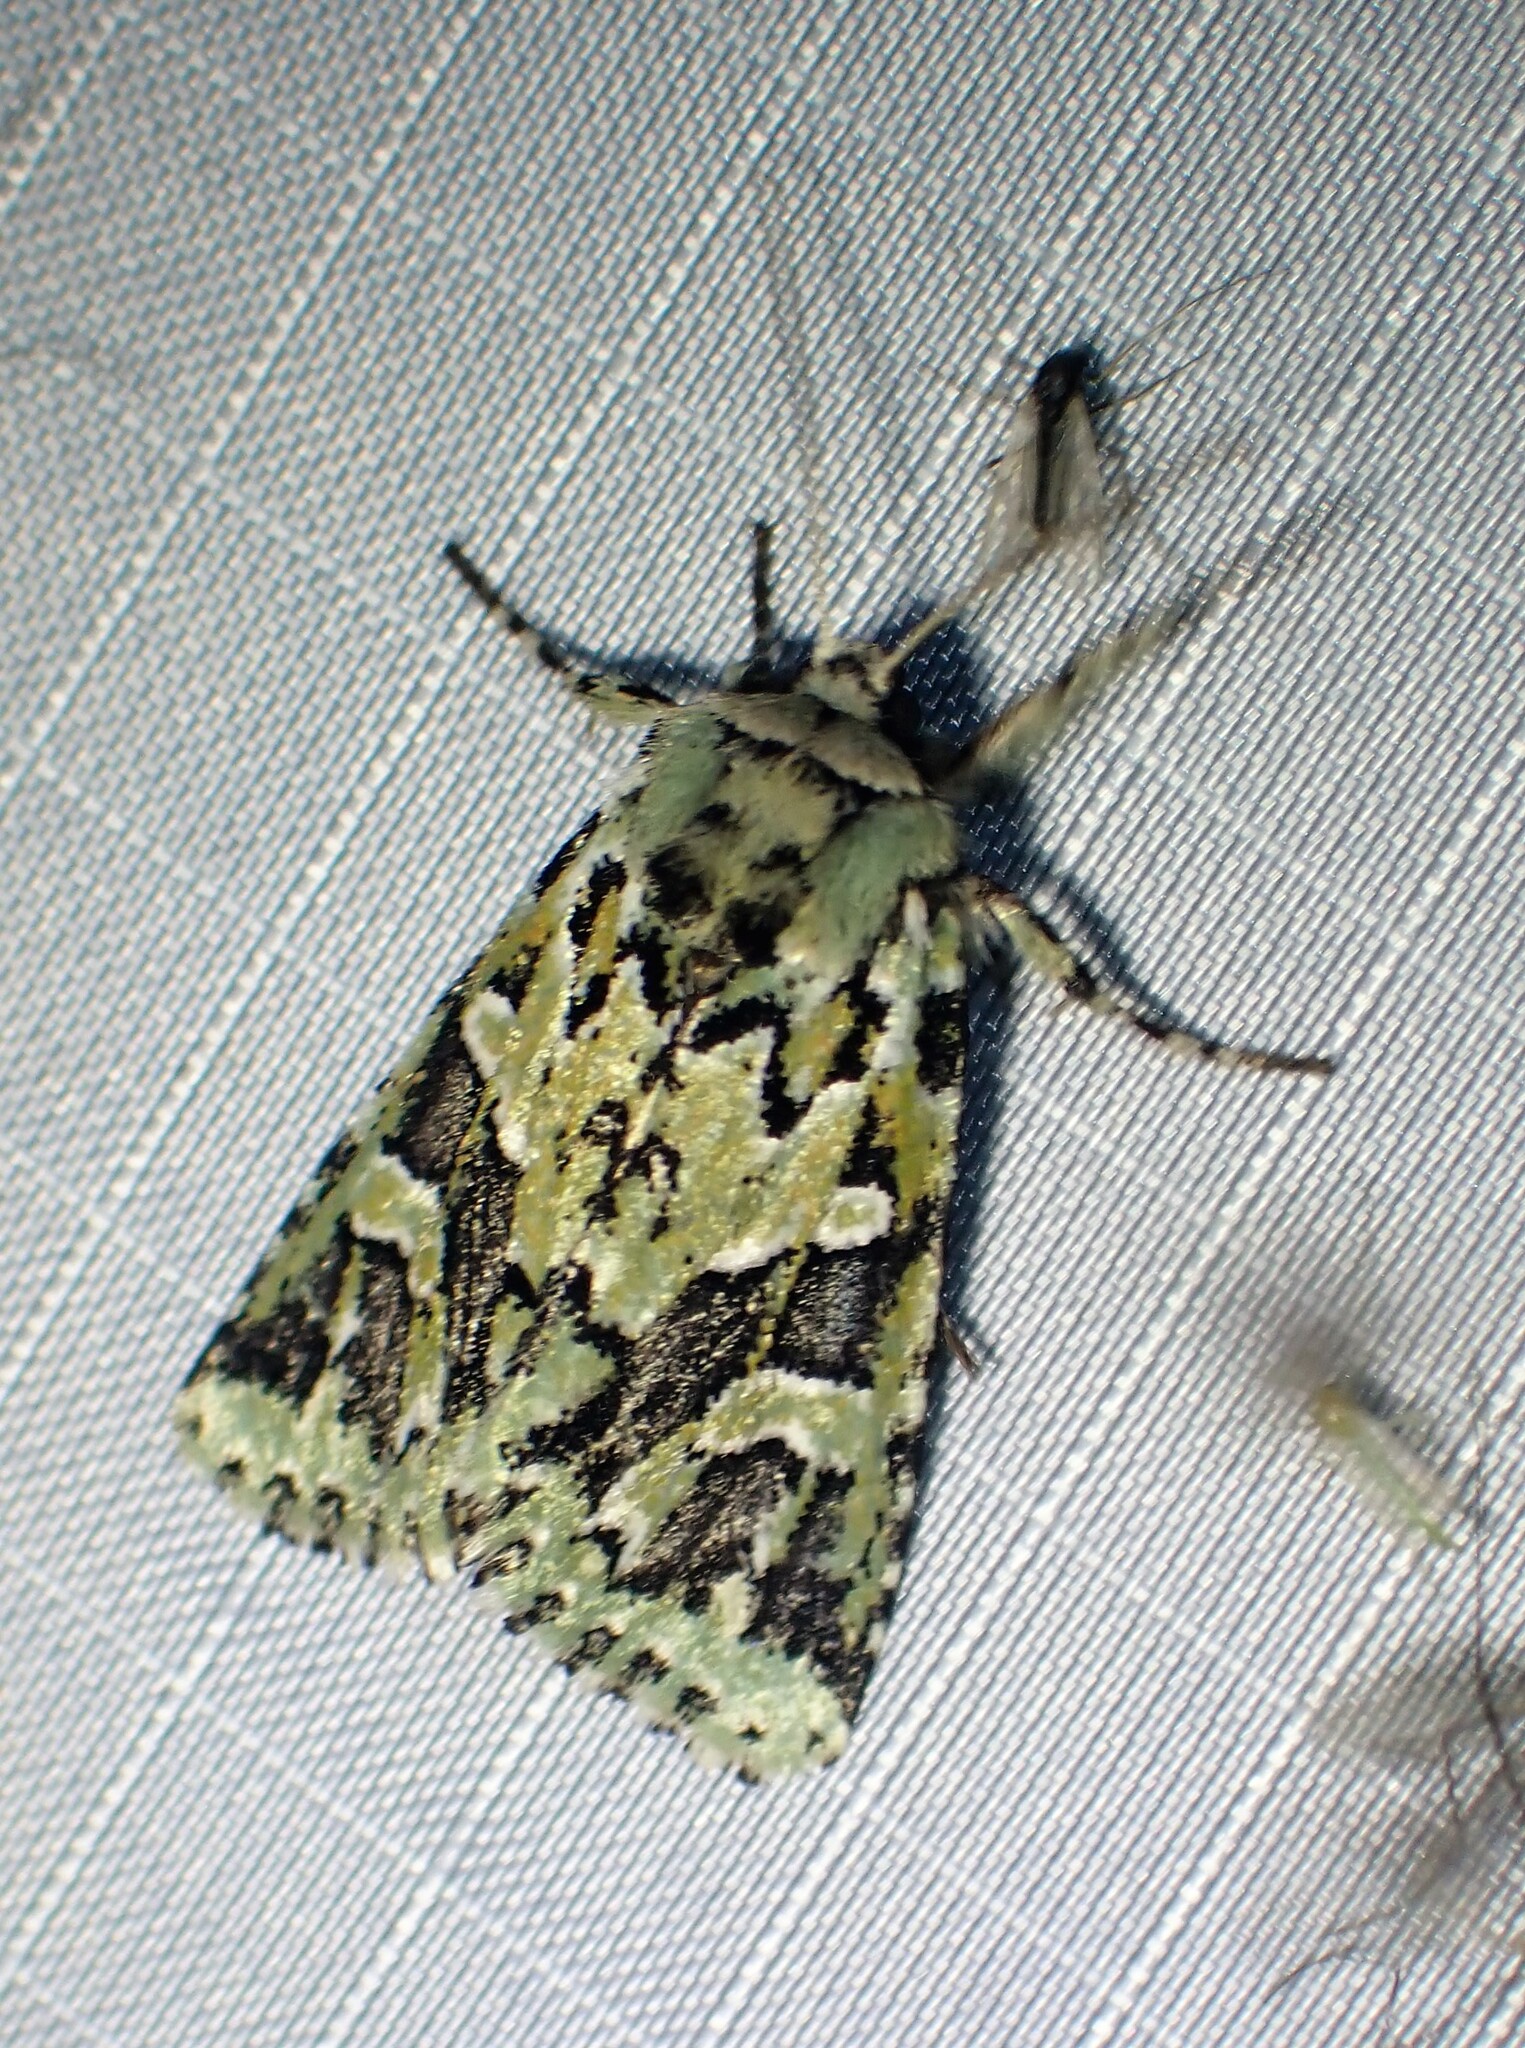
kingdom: Animalia
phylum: Arthropoda
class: Insecta
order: Lepidoptera
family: Noctuidae
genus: Feralia
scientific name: Feralia comstocki
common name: Comstock's sallow
